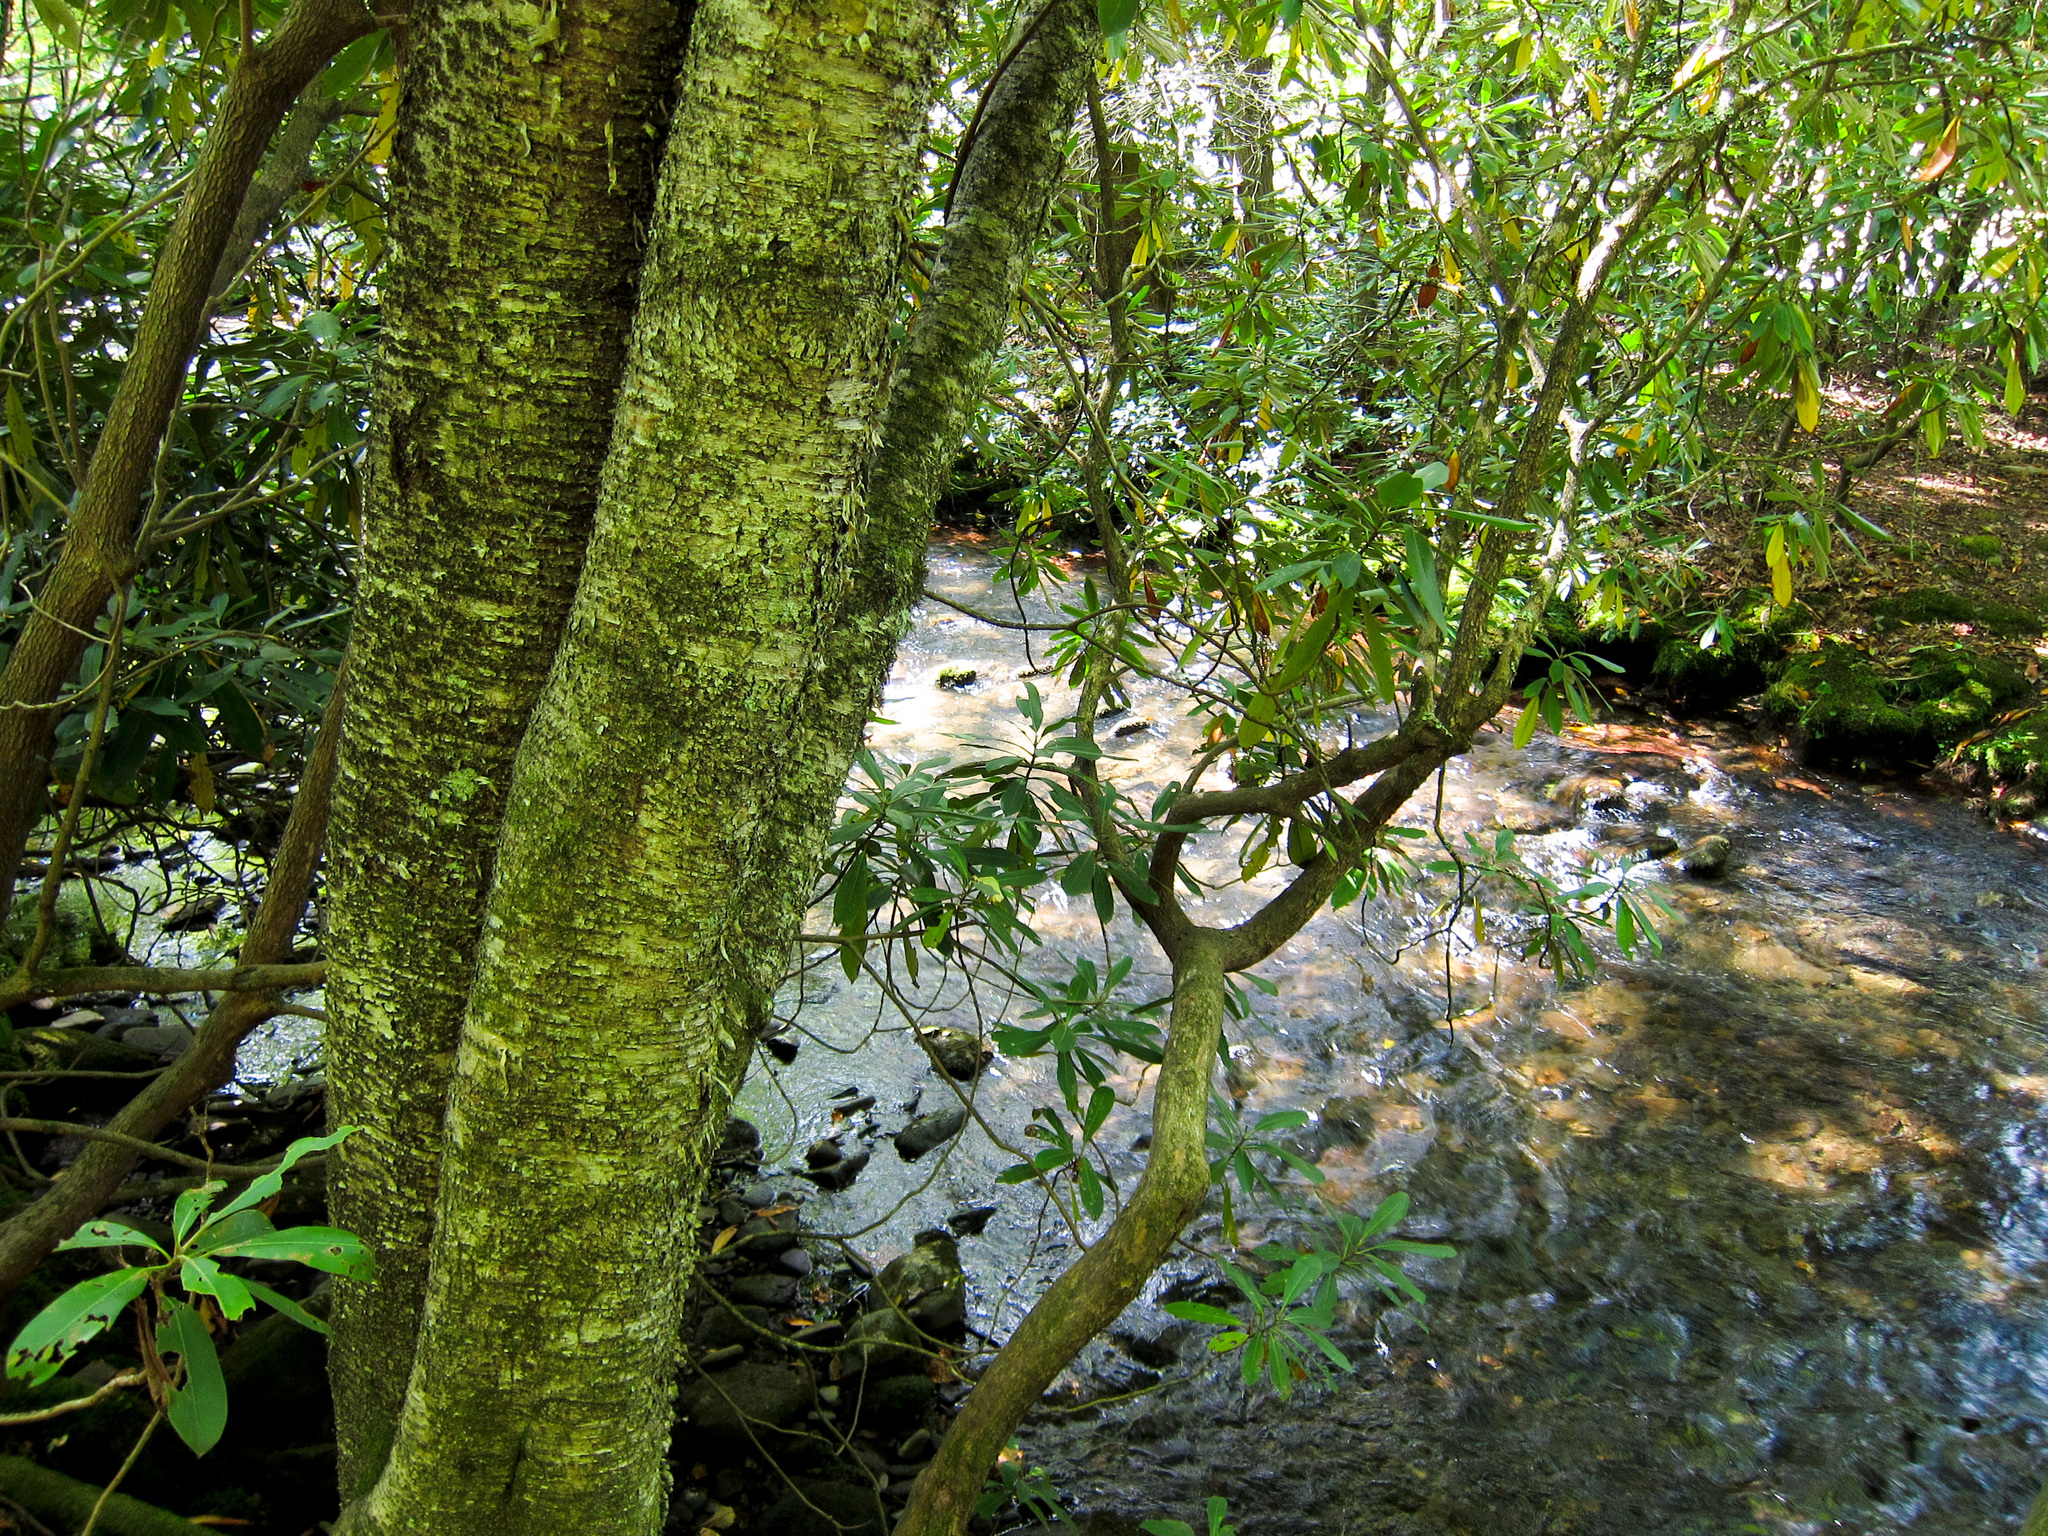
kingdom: Plantae
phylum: Tracheophyta
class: Magnoliopsida
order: Fagales
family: Betulaceae
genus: Betula
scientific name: Betula alleghaniensis
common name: Yellow birch
